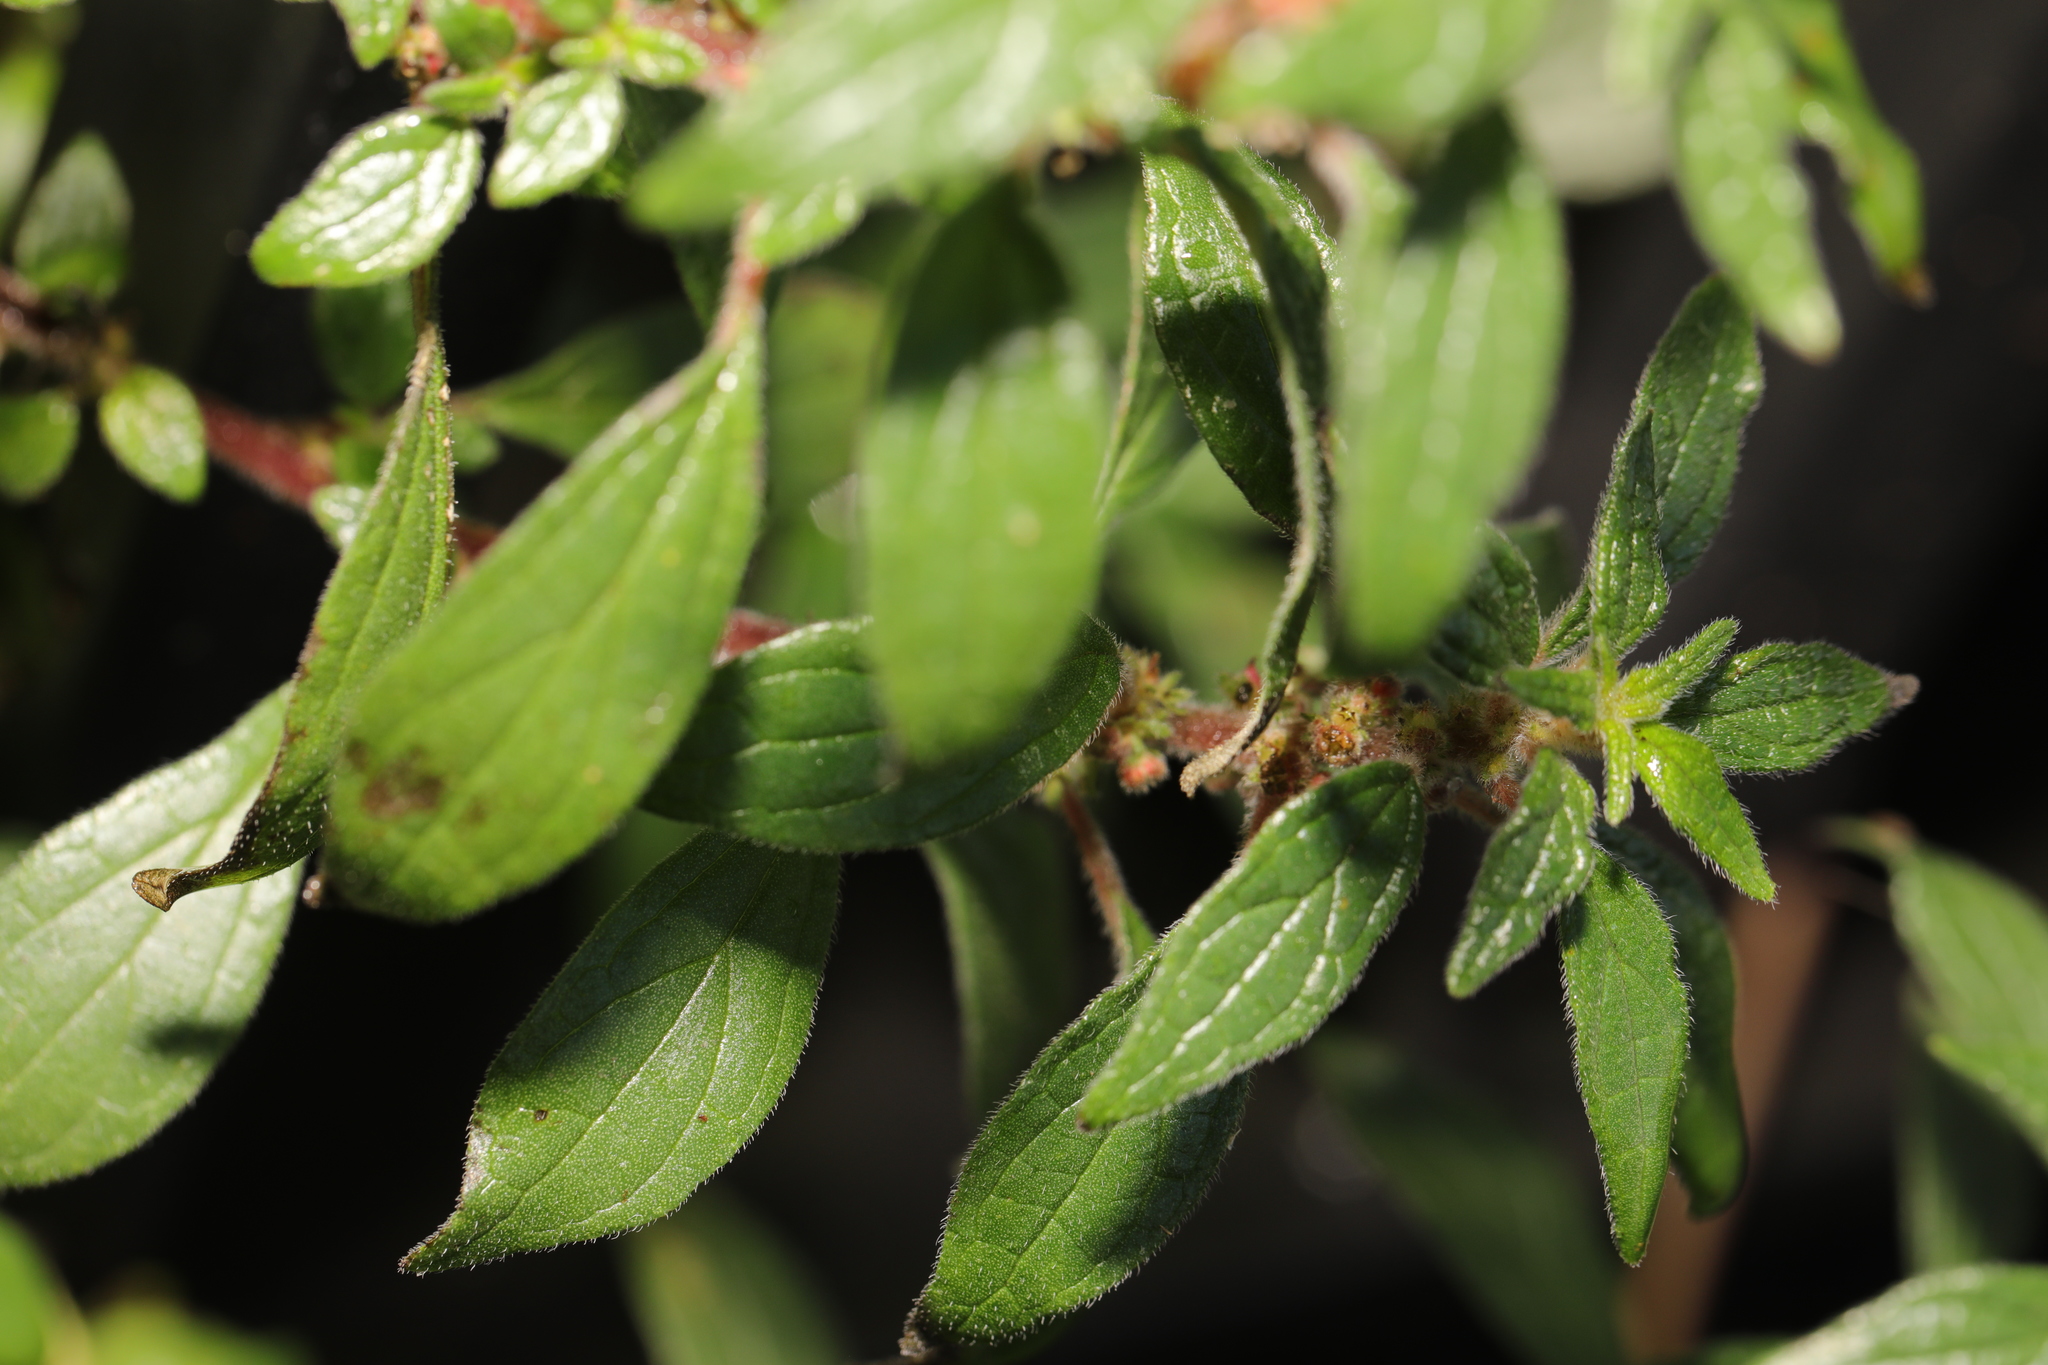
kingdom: Plantae
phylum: Tracheophyta
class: Magnoliopsida
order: Rosales
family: Urticaceae
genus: Parietaria
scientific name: Parietaria judaica
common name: Pellitory-of-the-wall
